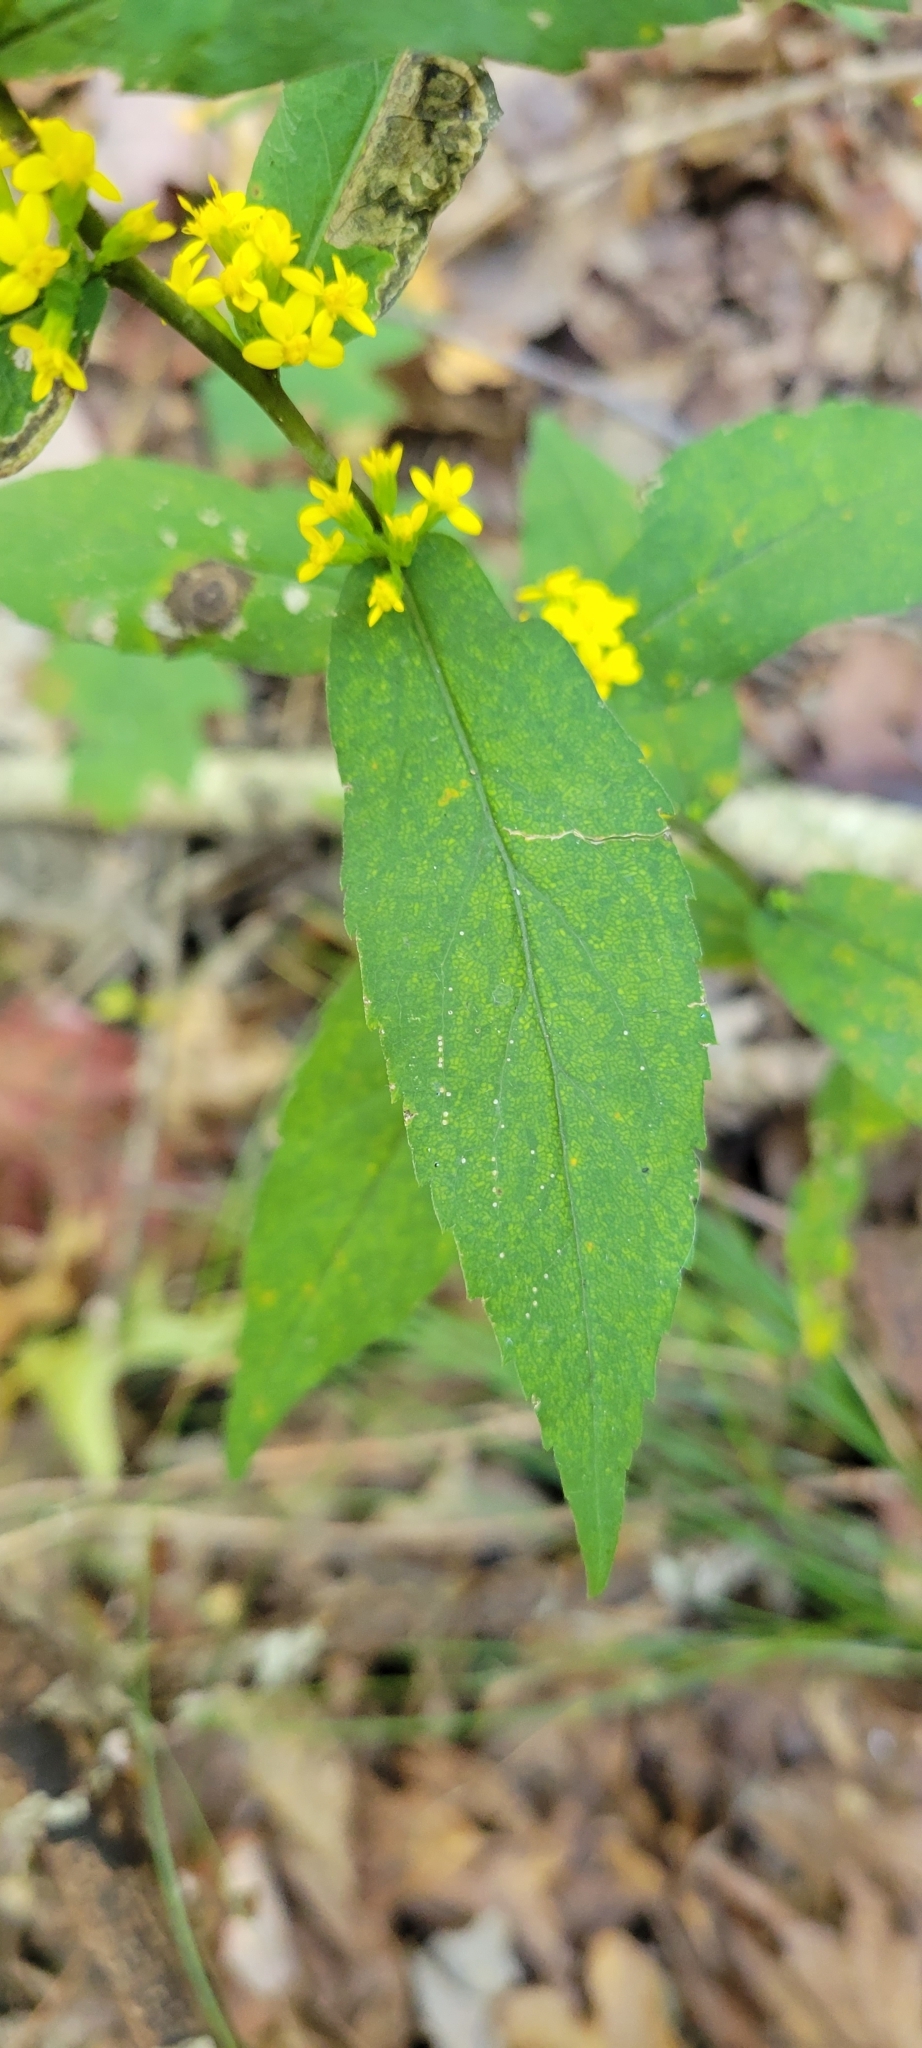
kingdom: Plantae
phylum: Tracheophyta
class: Magnoliopsida
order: Asterales
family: Asteraceae
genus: Solidago
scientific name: Solidago ulmifolia
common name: Elm-leaf goldenrod
